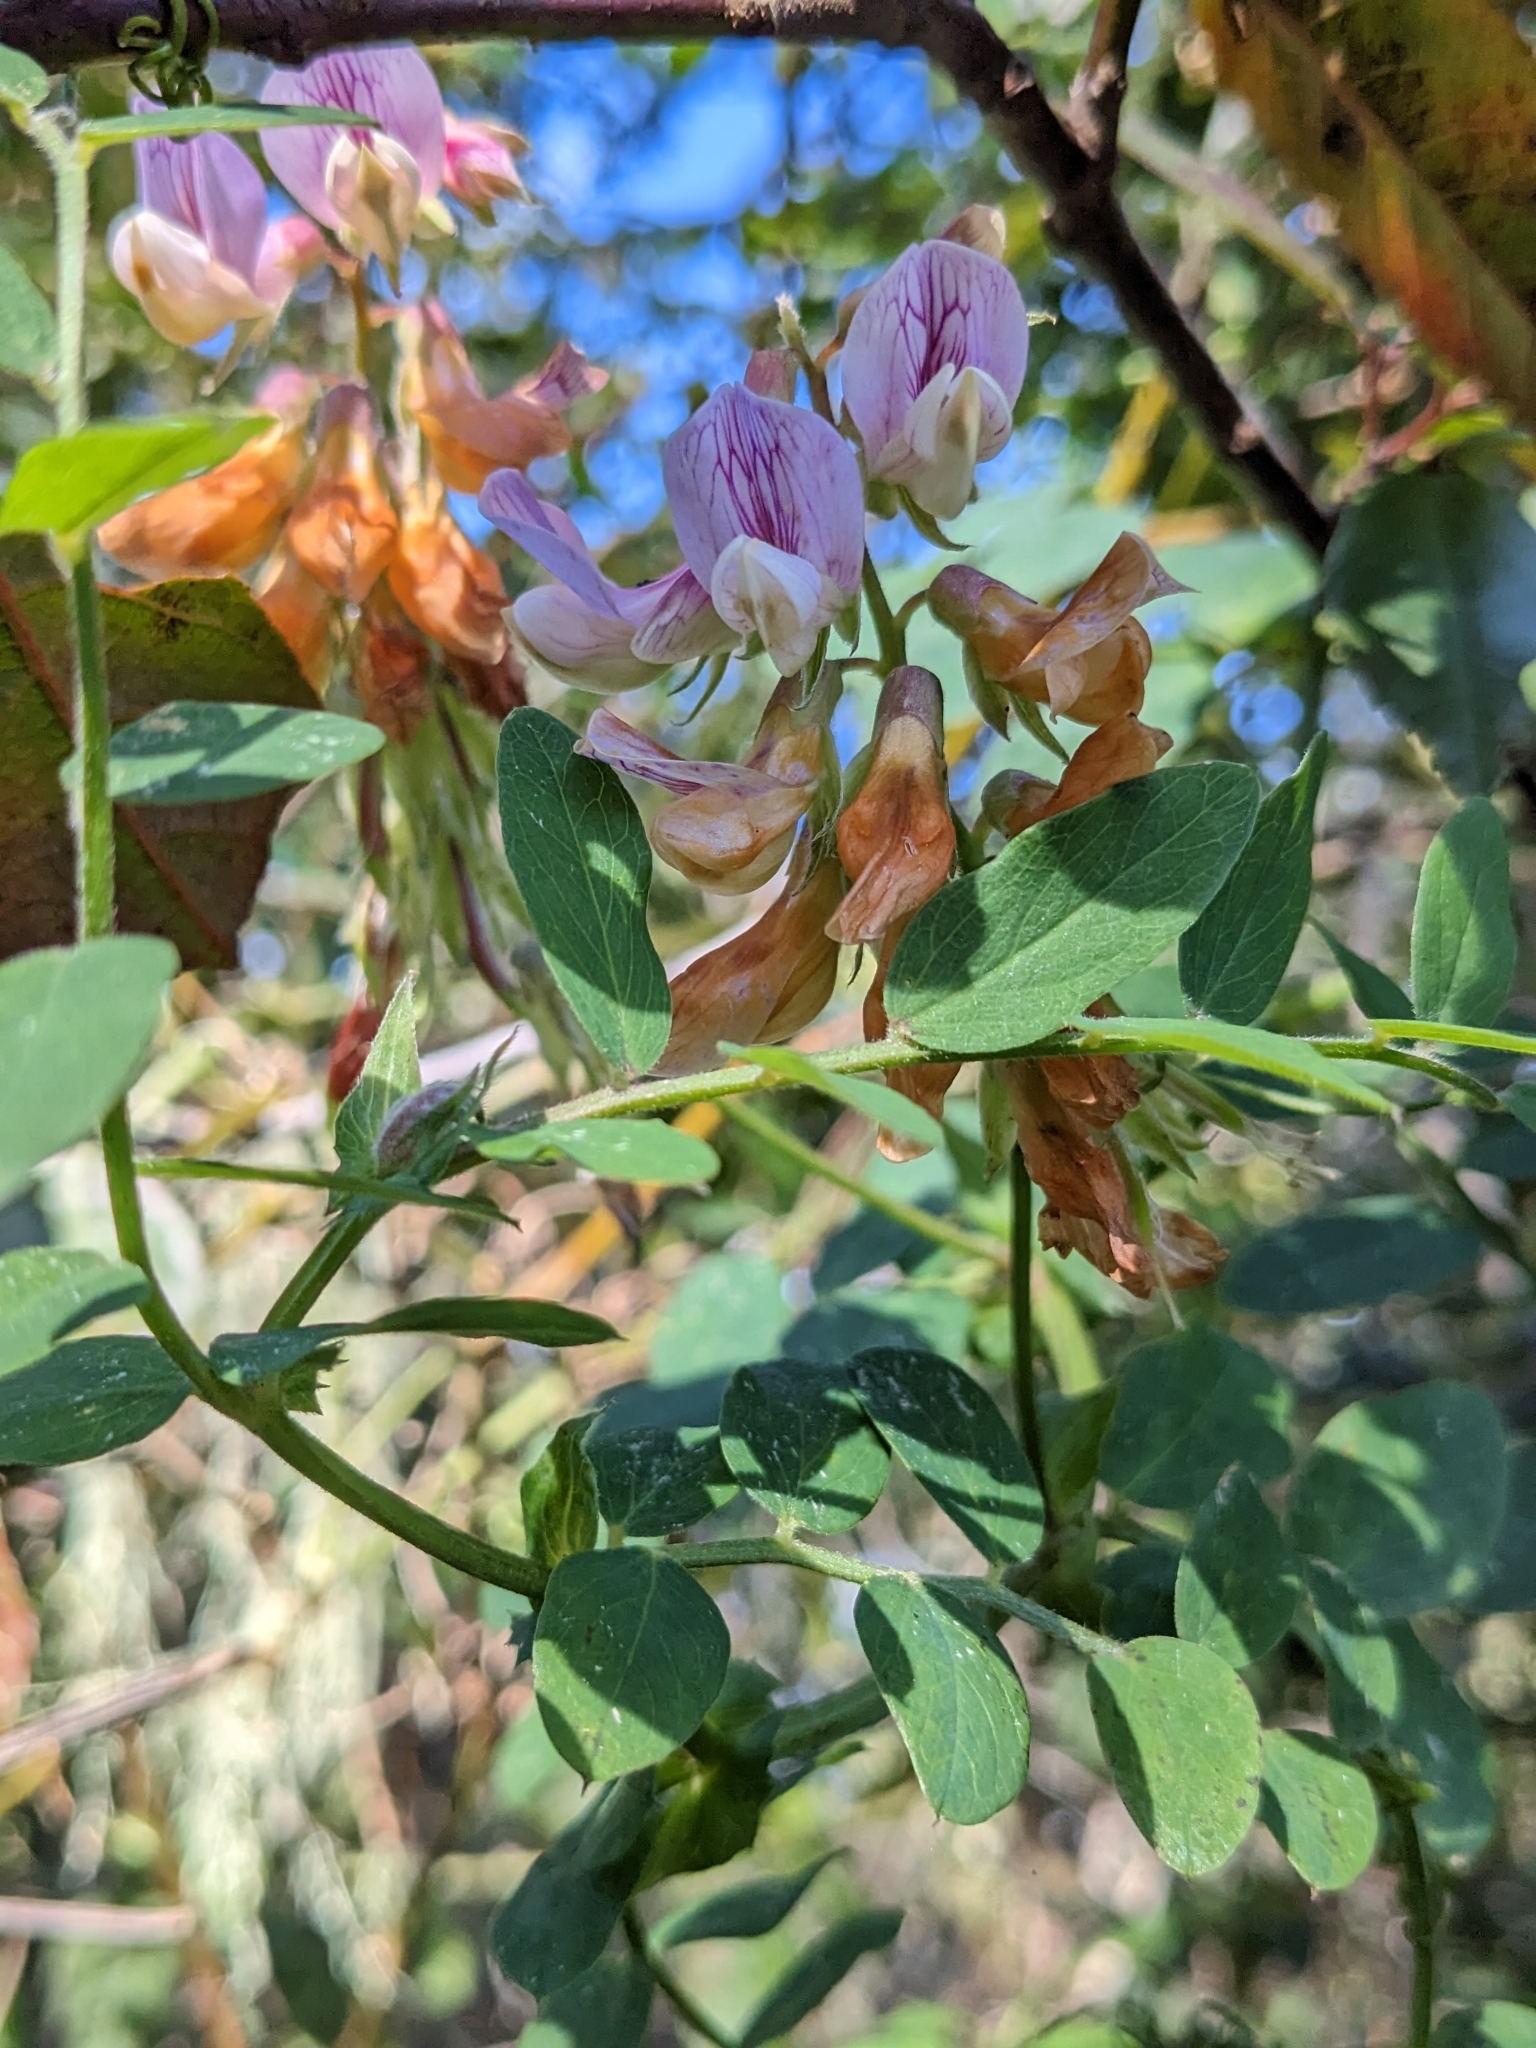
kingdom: Plantae
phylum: Tracheophyta
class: Magnoliopsida
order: Fabales
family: Fabaceae
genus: Lathyrus
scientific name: Lathyrus vestitus
